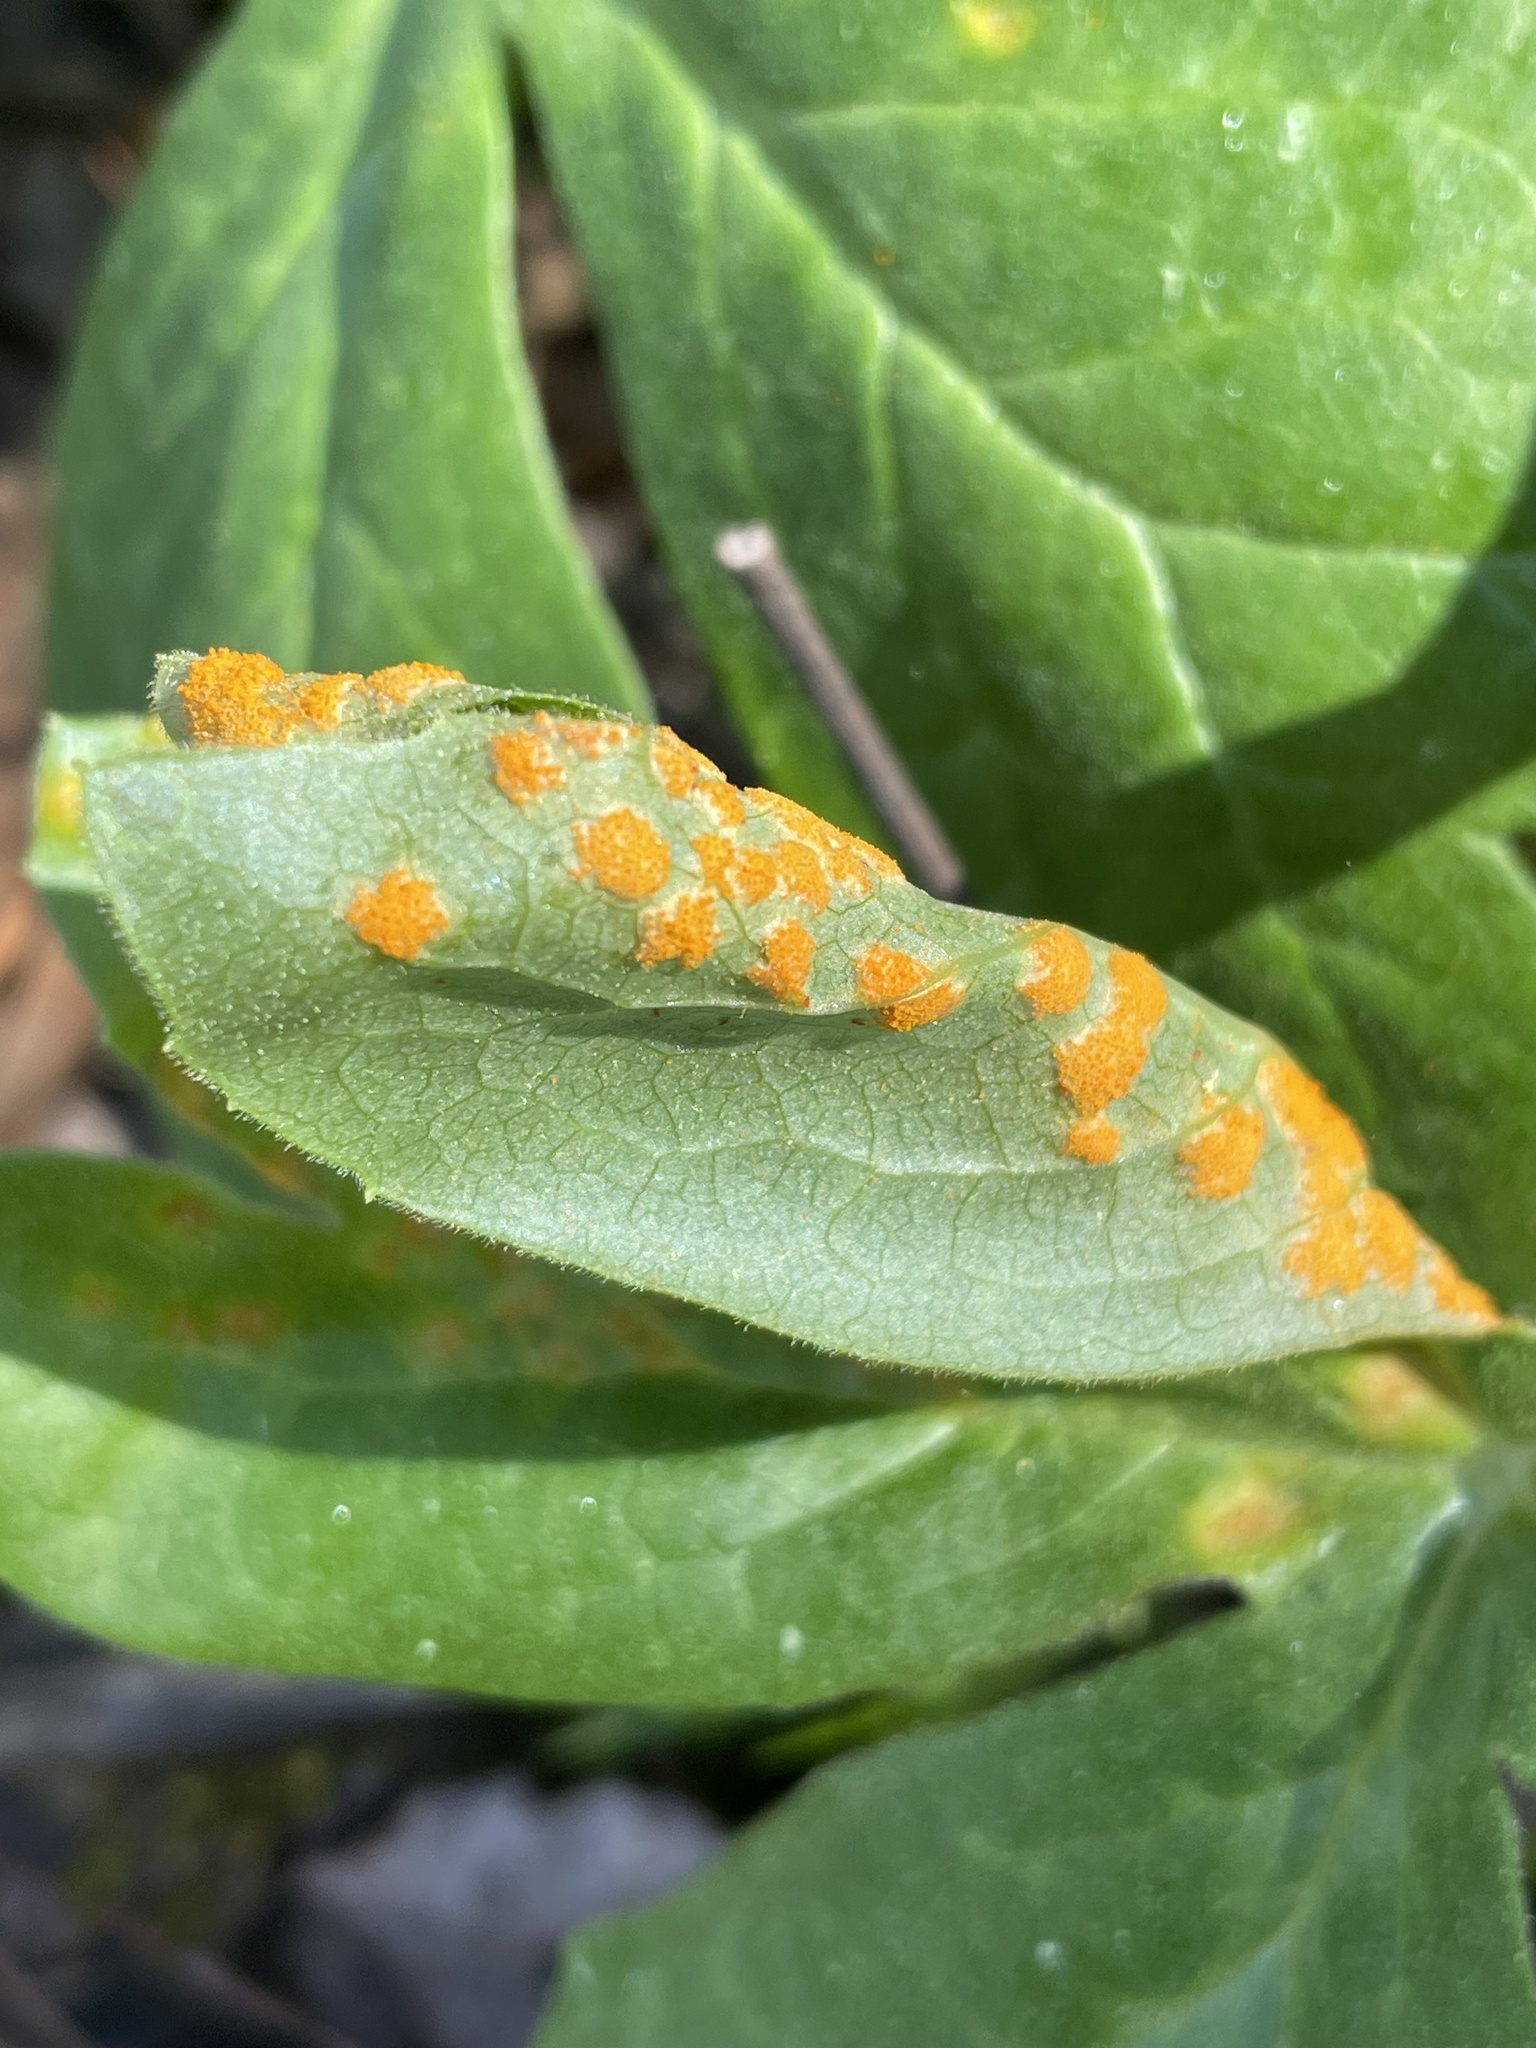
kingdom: Fungi
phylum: Basidiomycota
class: Pucciniomycetes
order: Pucciniales
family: Pucciniaceae
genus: Puccinia
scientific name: Puccinia podophylli
